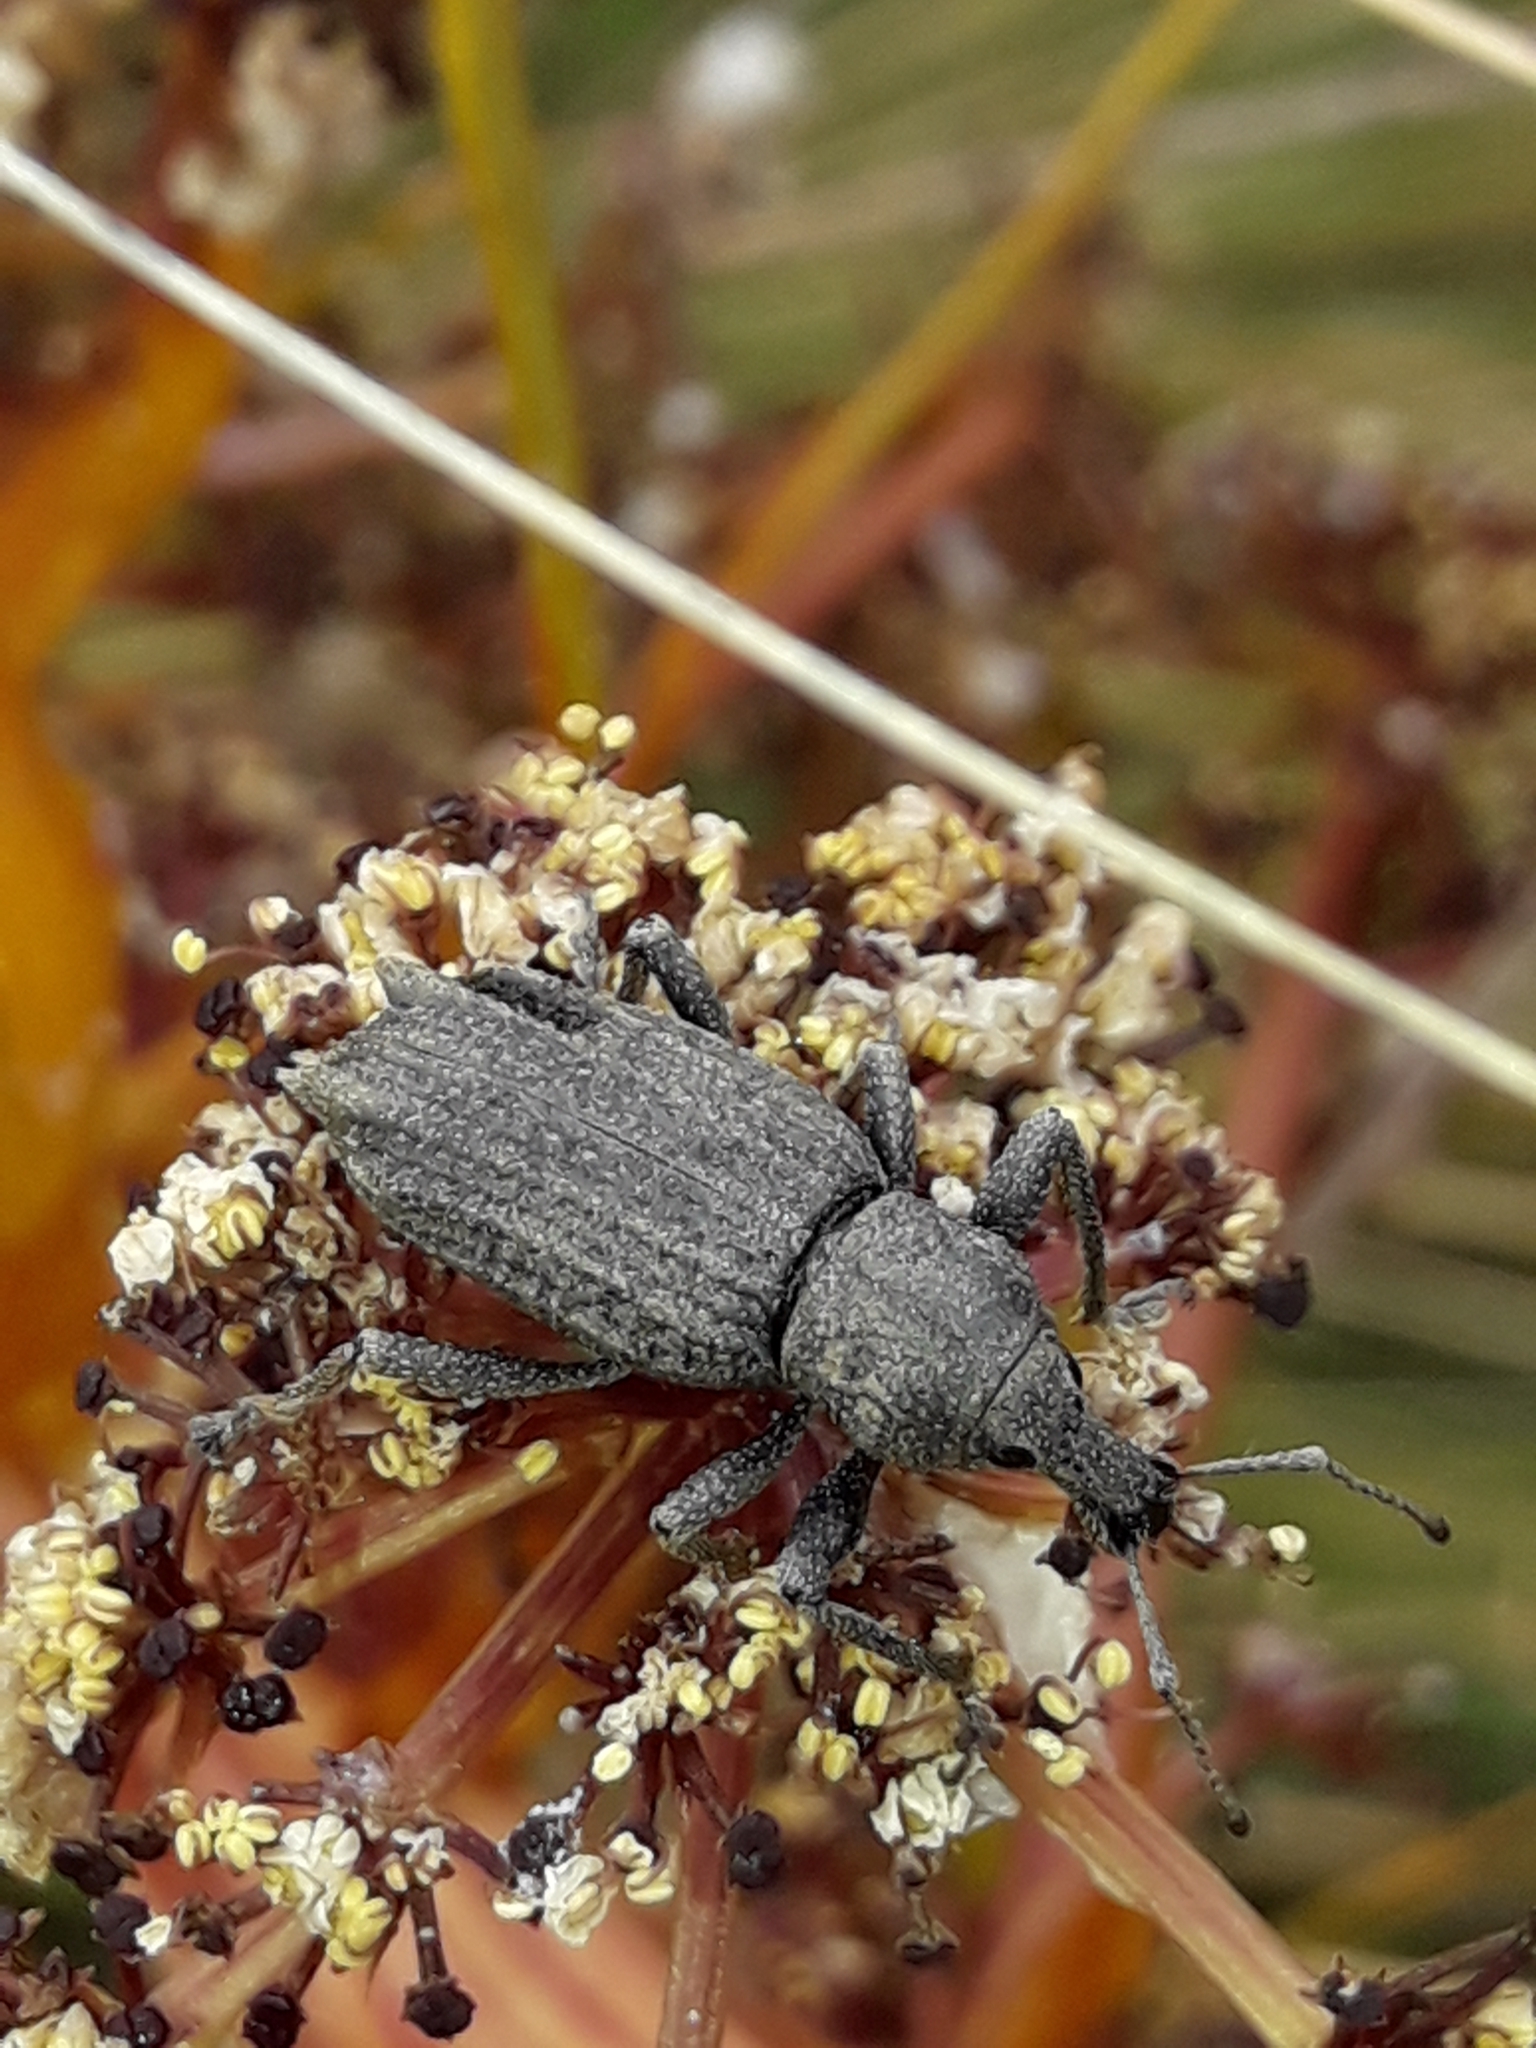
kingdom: Animalia
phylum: Arthropoda
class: Insecta
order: Coleoptera
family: Curculionidae
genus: Inophloeus
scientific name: Inophloeus inuus
